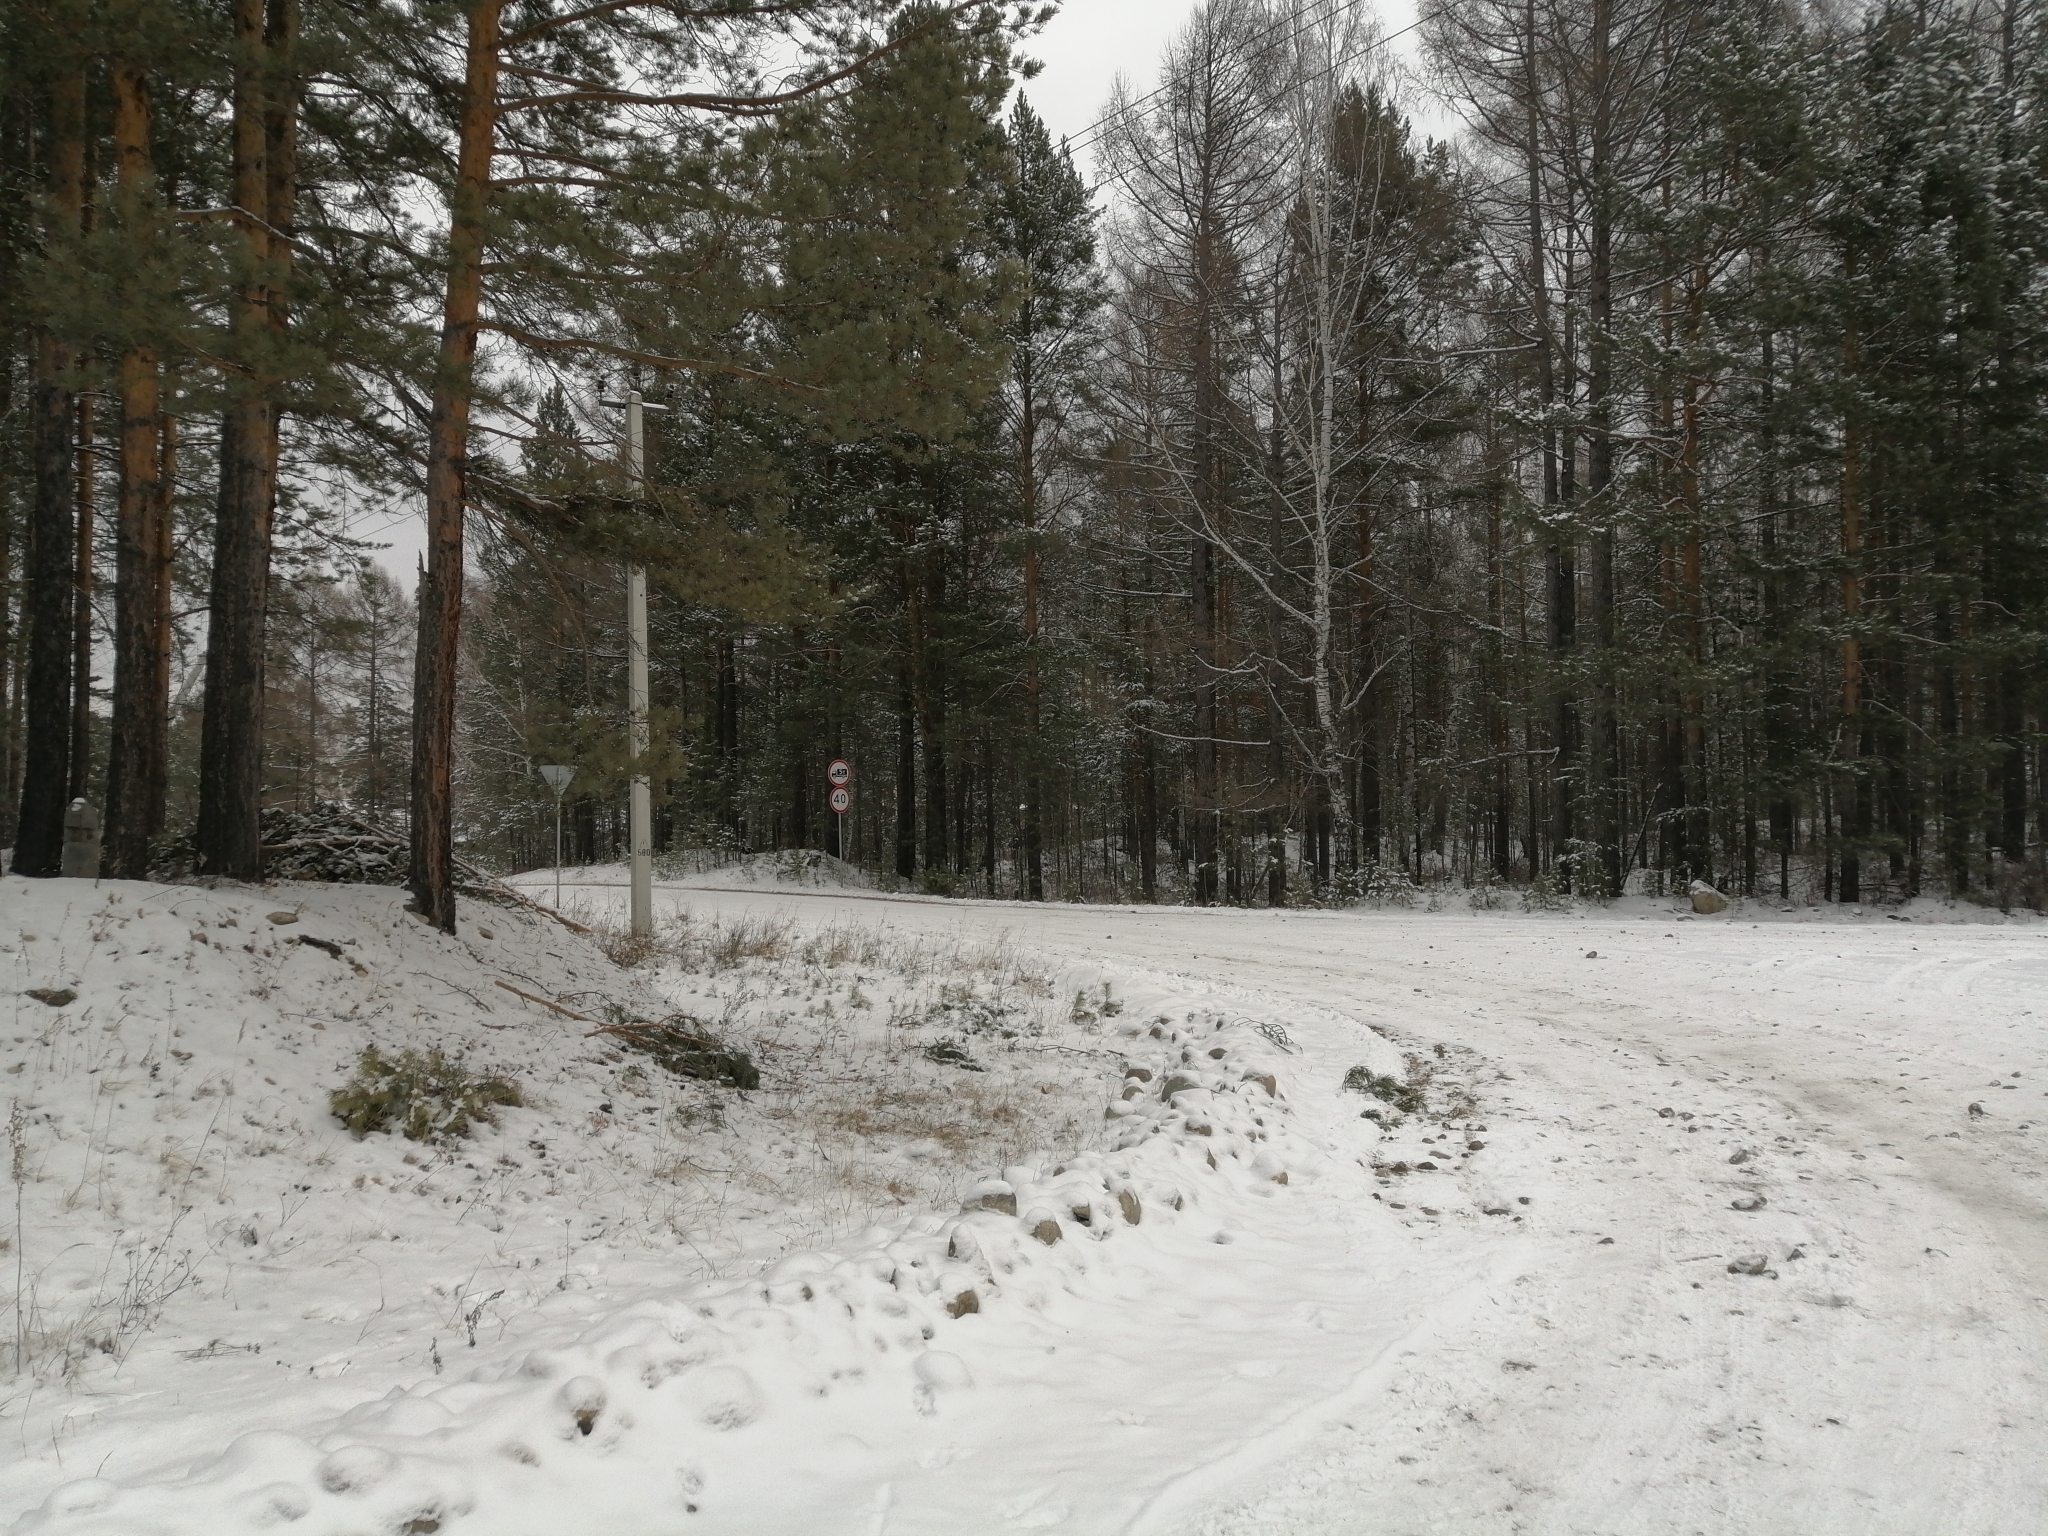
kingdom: Plantae
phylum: Tracheophyta
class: Pinopsida
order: Pinales
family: Pinaceae
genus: Pinus
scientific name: Pinus sylvestris
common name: Scots pine
